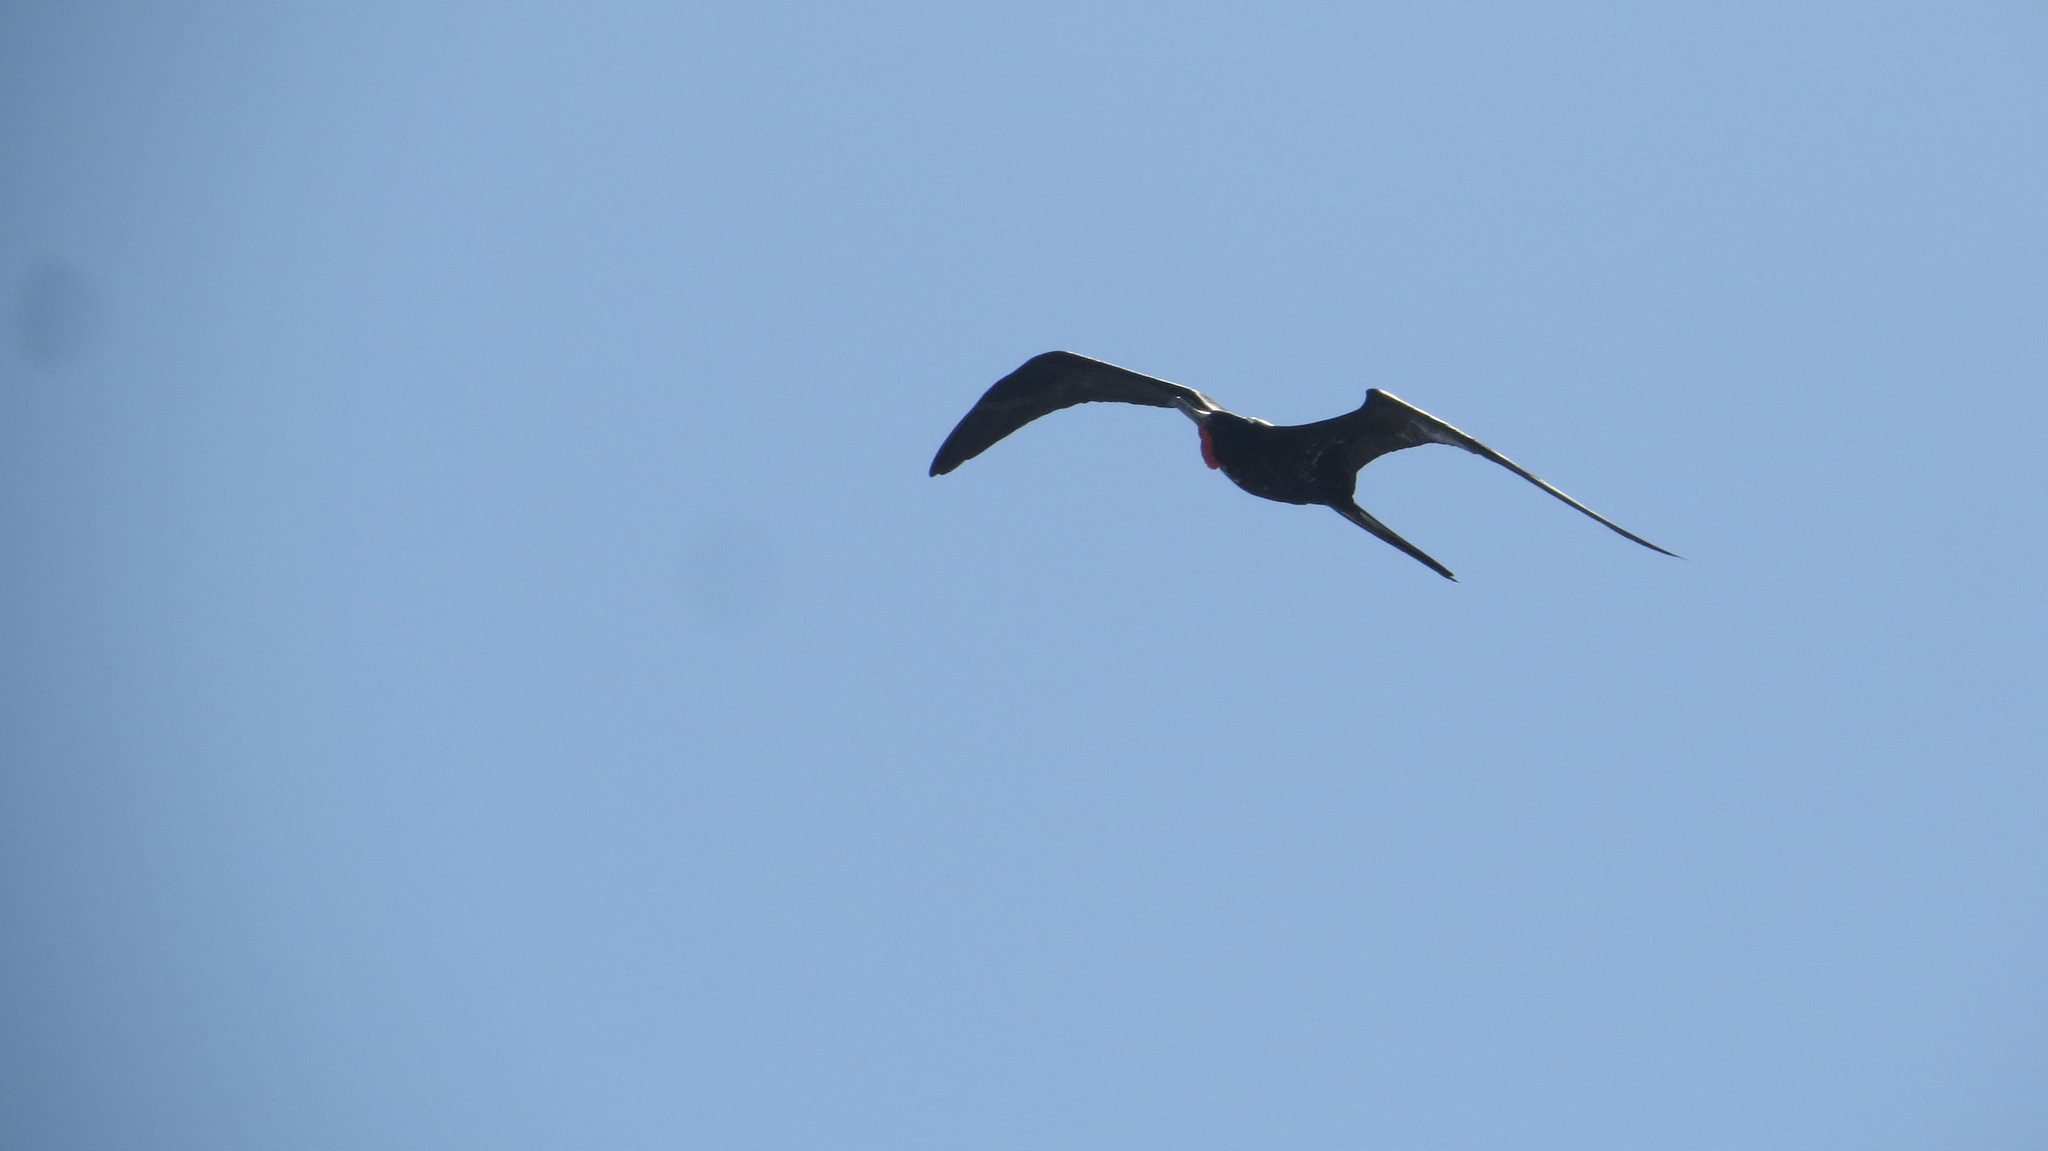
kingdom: Animalia
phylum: Chordata
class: Aves
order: Suliformes
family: Fregatidae
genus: Fregata
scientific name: Fregata magnificens
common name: Magnificent frigatebird
